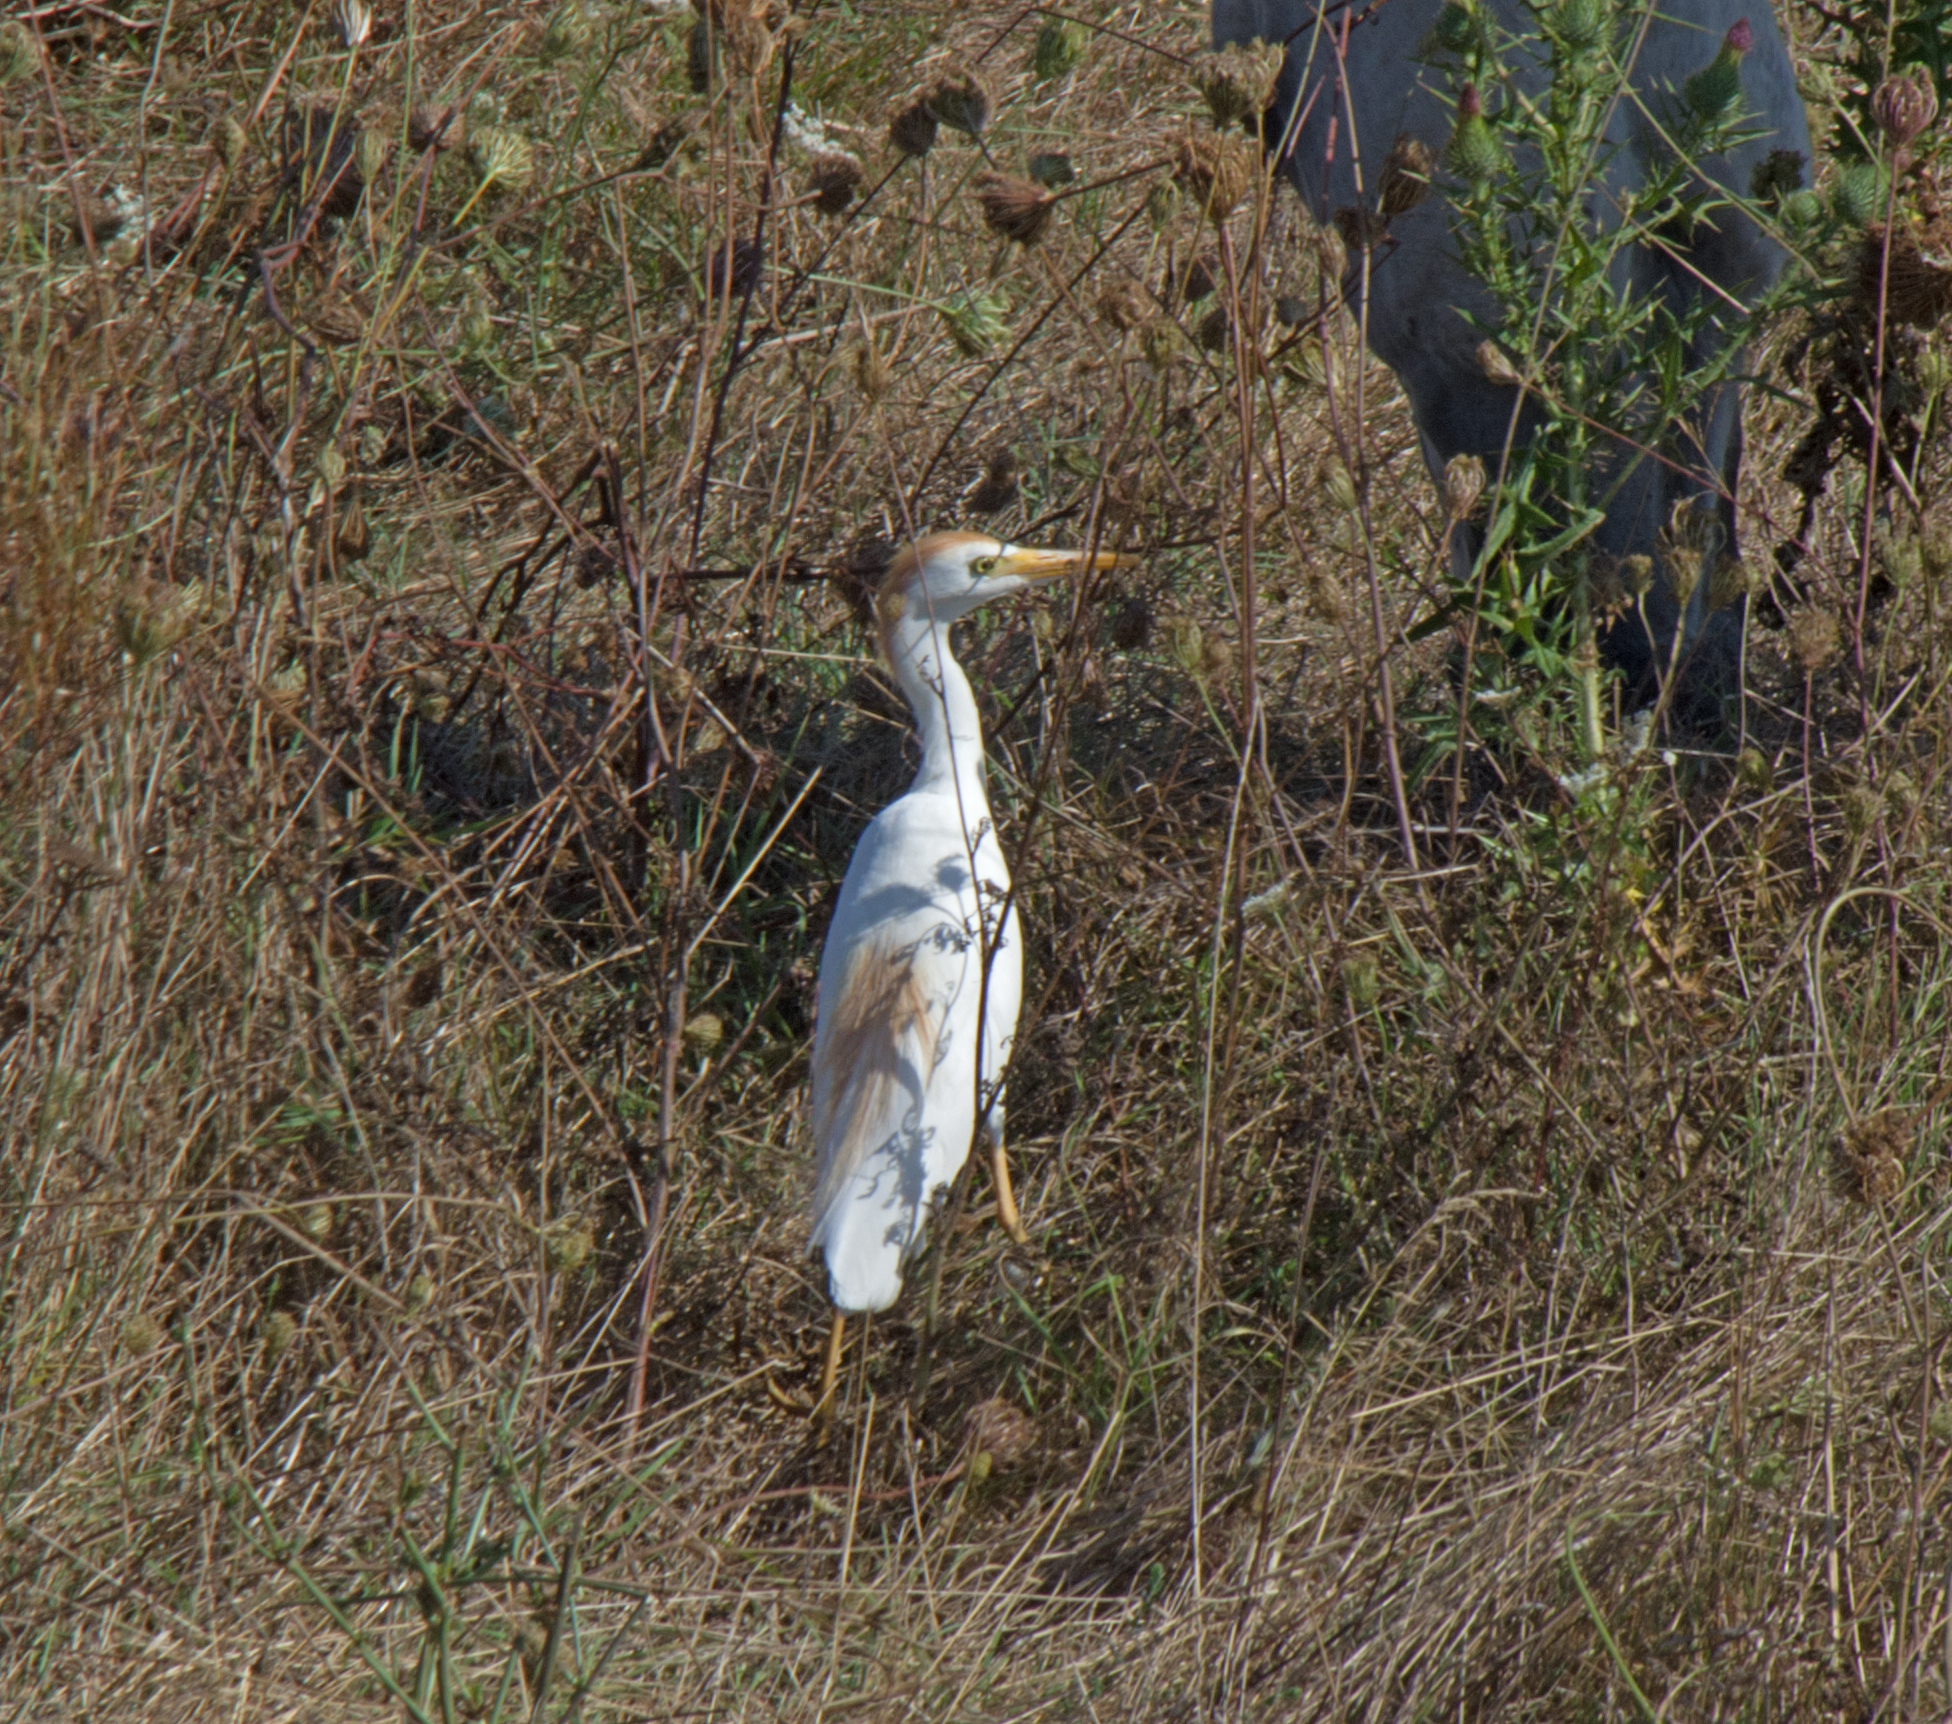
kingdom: Animalia
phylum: Chordata
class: Aves
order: Pelecaniformes
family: Ardeidae
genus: Bubulcus
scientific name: Bubulcus ibis
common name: Cattle egret
